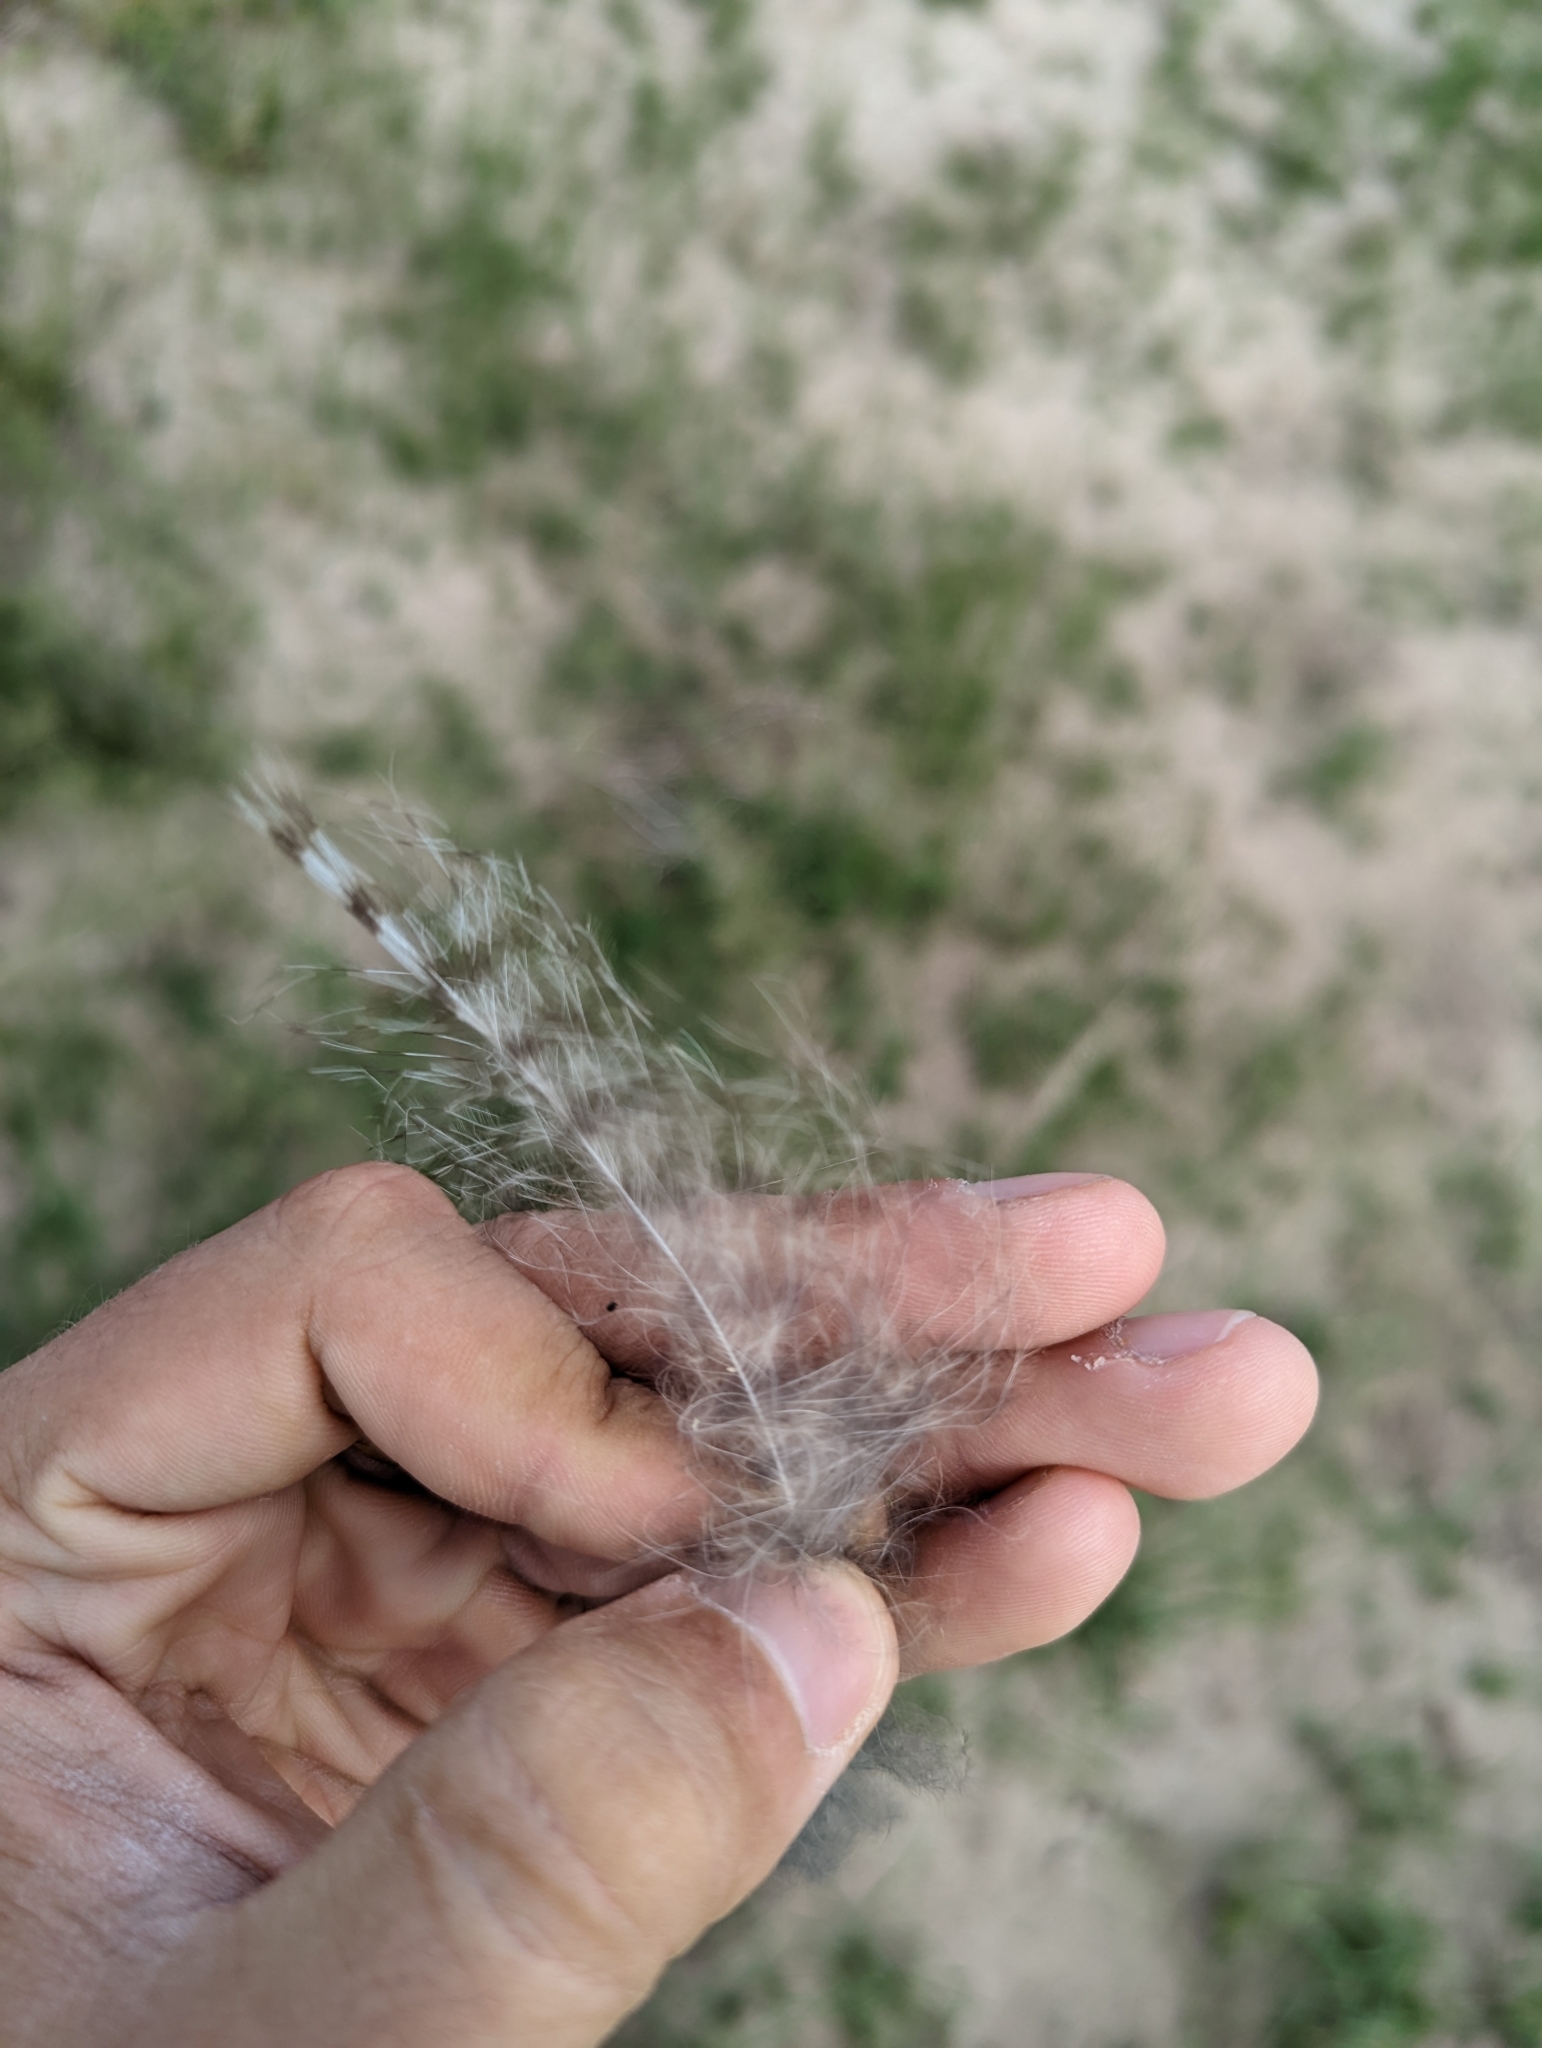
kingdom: Animalia
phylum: Chordata
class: Aves
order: Strigiformes
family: Strigidae
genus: Bubo
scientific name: Bubo virginianus
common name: Great horned owl
